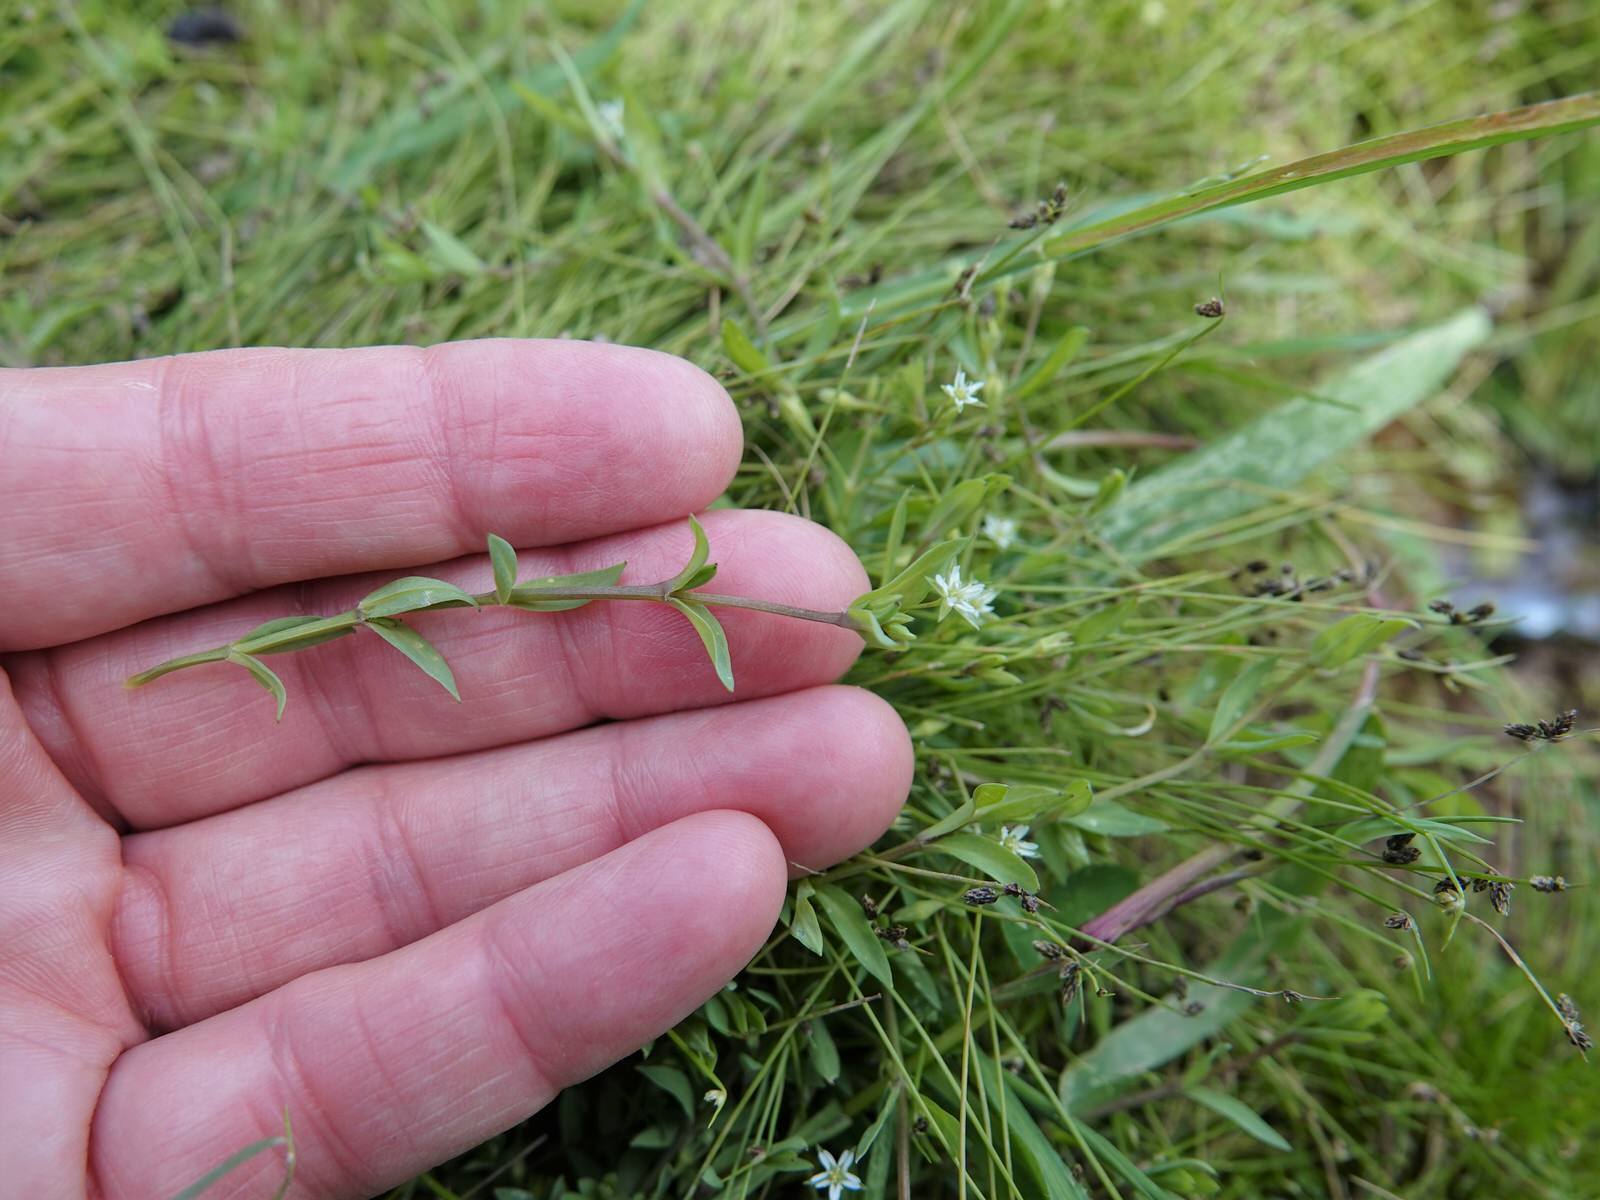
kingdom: Plantae
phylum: Tracheophyta
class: Magnoliopsida
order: Caryophyllales
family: Caryophyllaceae
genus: Stellaria
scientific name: Stellaria alsine
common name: Bog stitchwort
